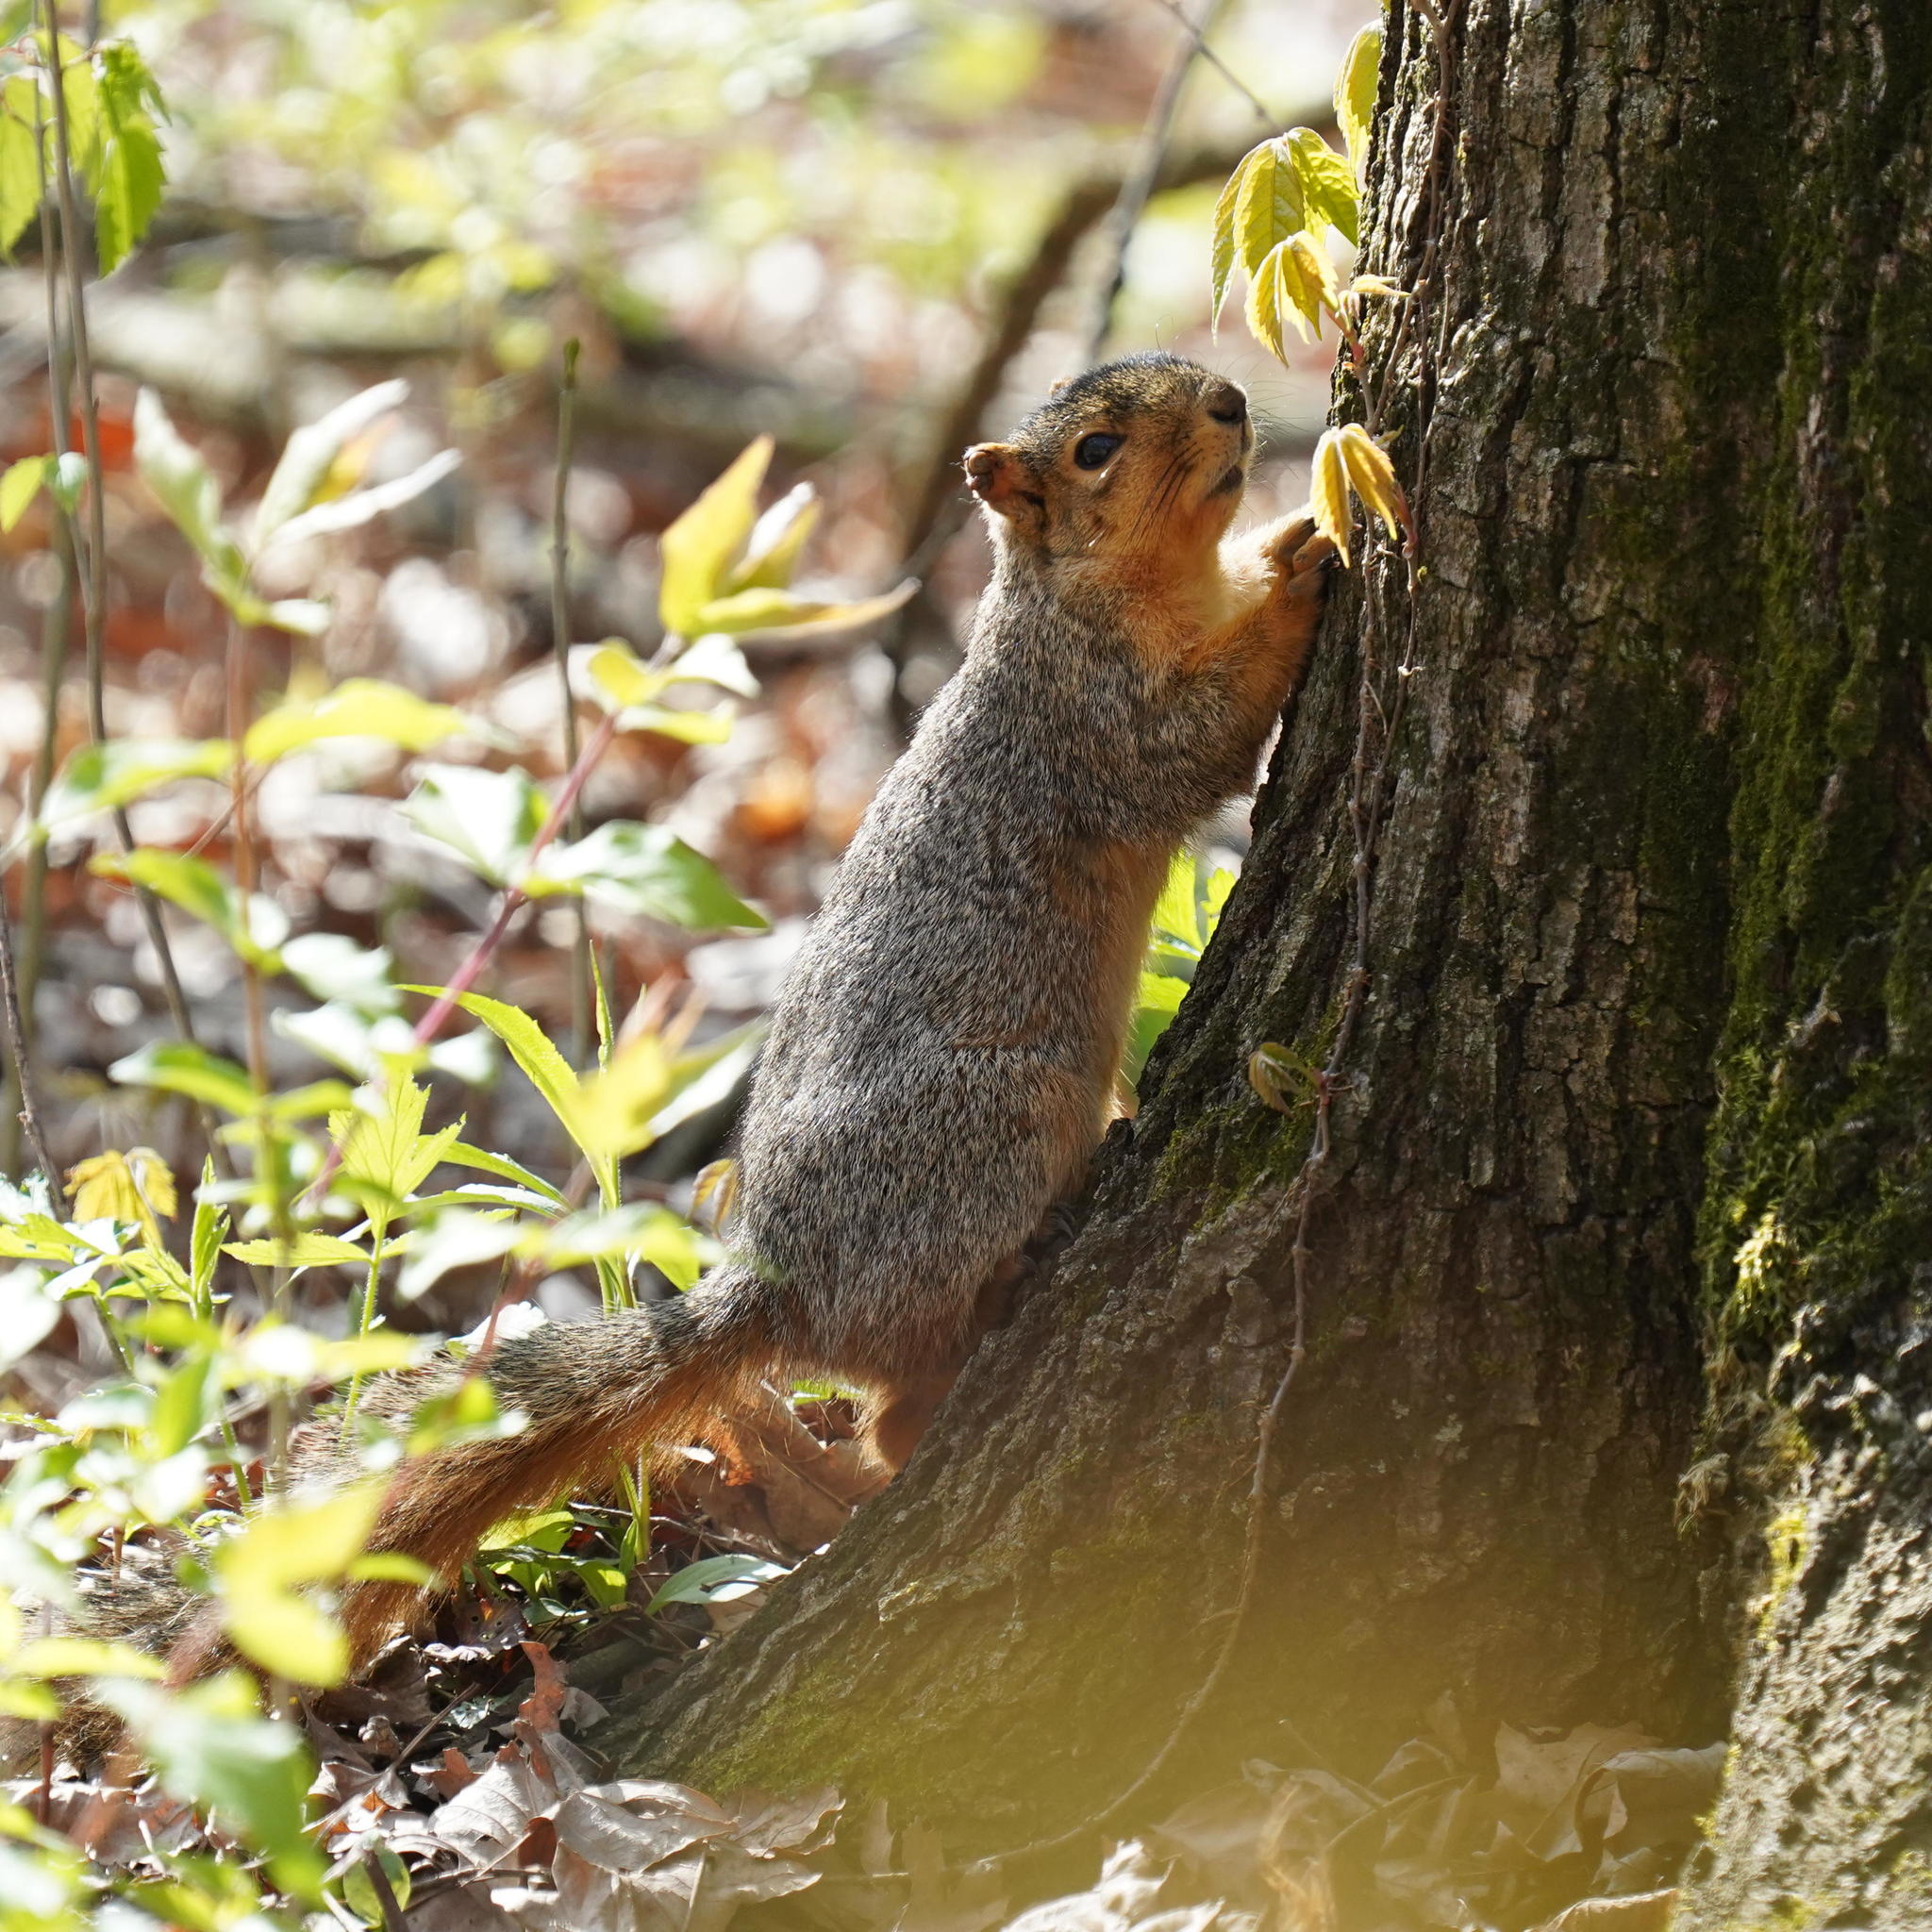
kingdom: Animalia
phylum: Chordata
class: Mammalia
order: Rodentia
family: Sciuridae
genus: Sciurus
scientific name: Sciurus niger
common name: Fox squirrel
